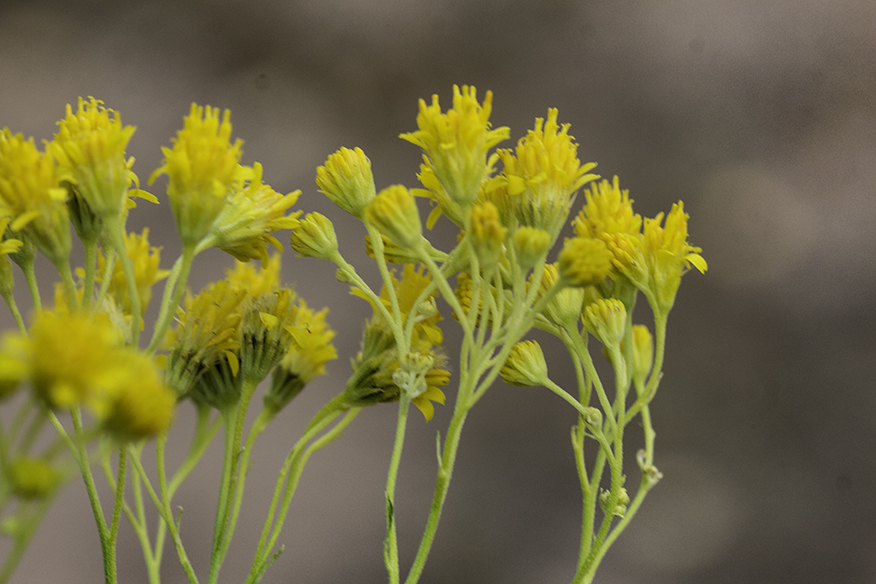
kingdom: Plantae
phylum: Tracheophyta
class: Magnoliopsida
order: Asterales
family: Asteraceae
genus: Hymenothrix
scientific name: Hymenothrix wislizeni
